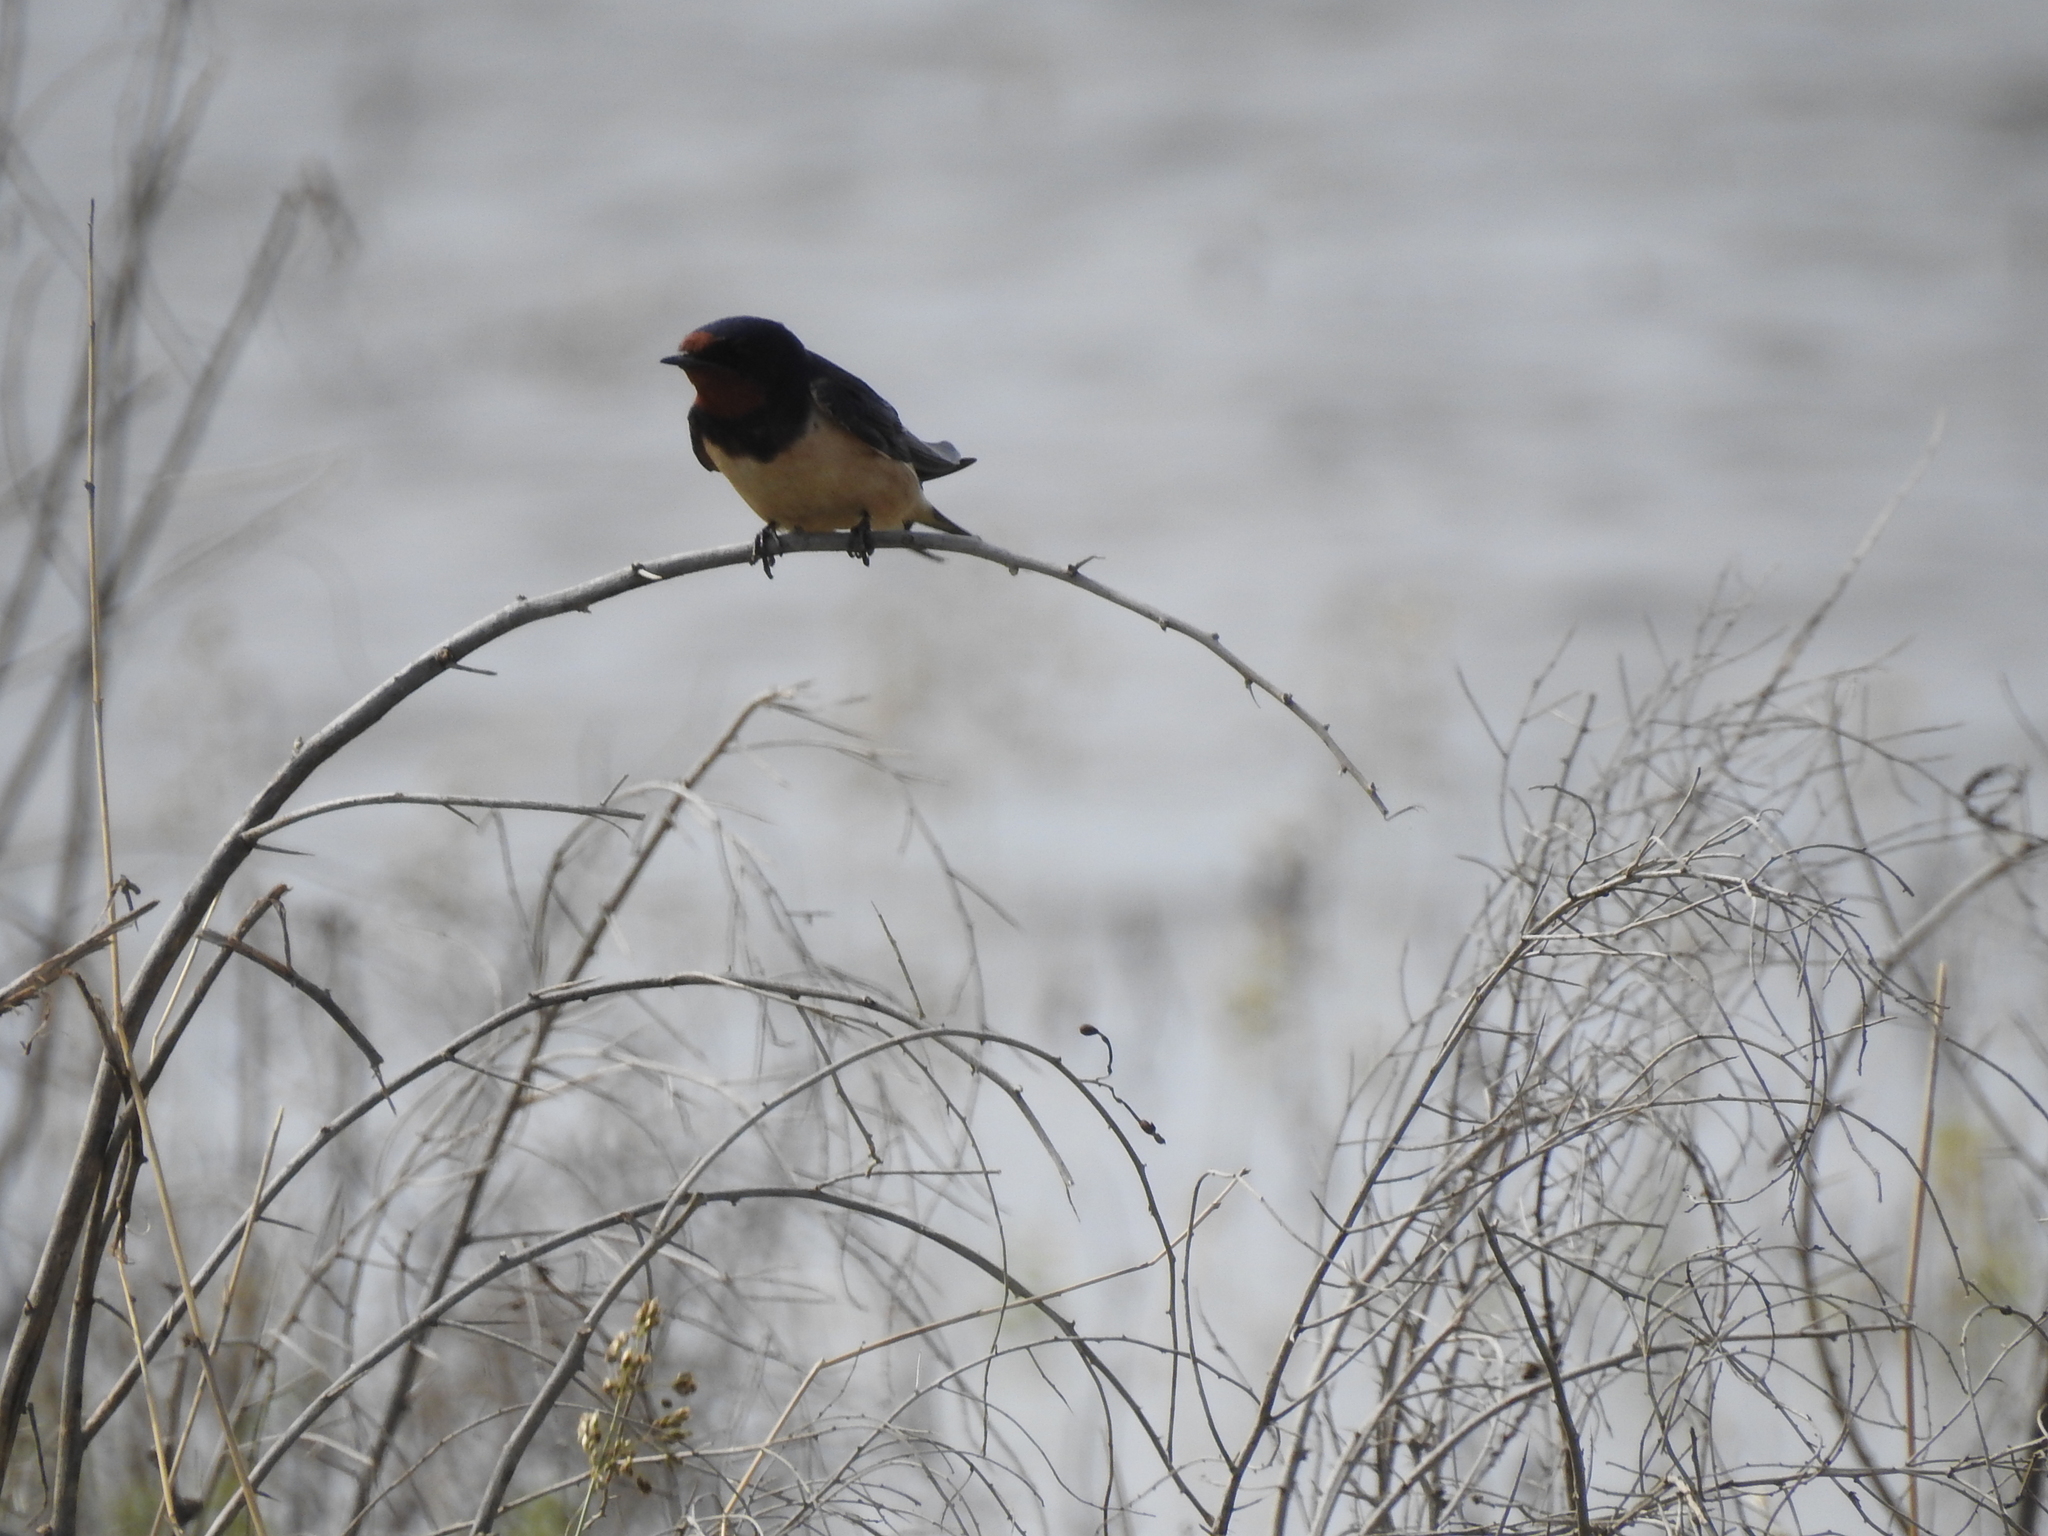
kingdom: Animalia
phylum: Chordata
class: Aves
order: Passeriformes
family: Hirundinidae
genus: Hirundo
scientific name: Hirundo rustica
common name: Barn swallow
